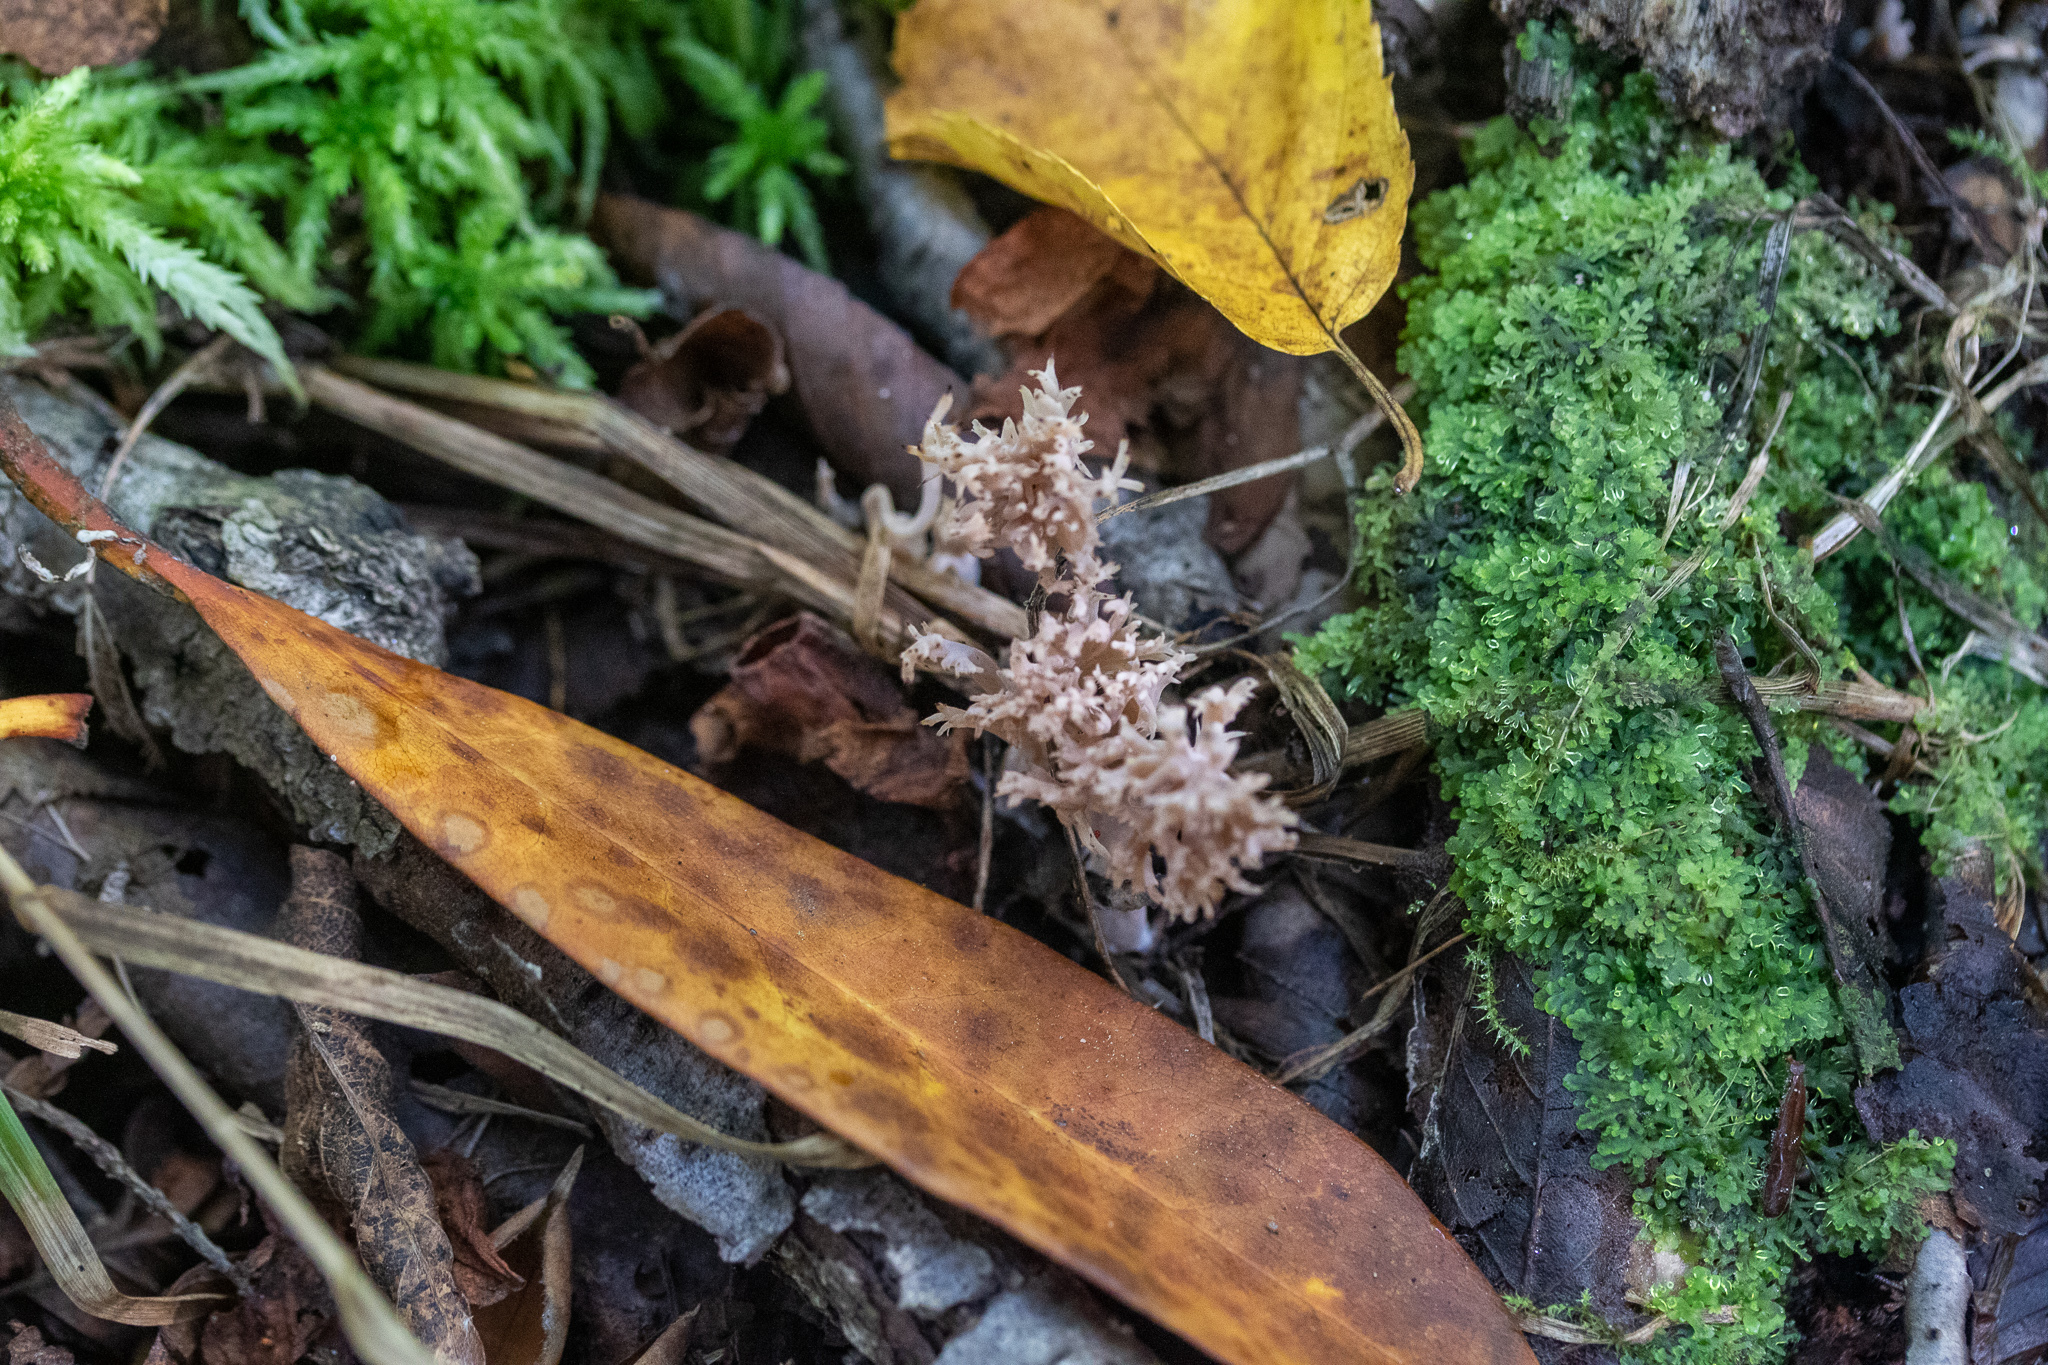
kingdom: Fungi
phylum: Basidiomycota
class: Agaricomycetes
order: Cantharellales
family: Hydnaceae
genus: Clavulina
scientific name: Clavulina coralloides
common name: Crested coral
